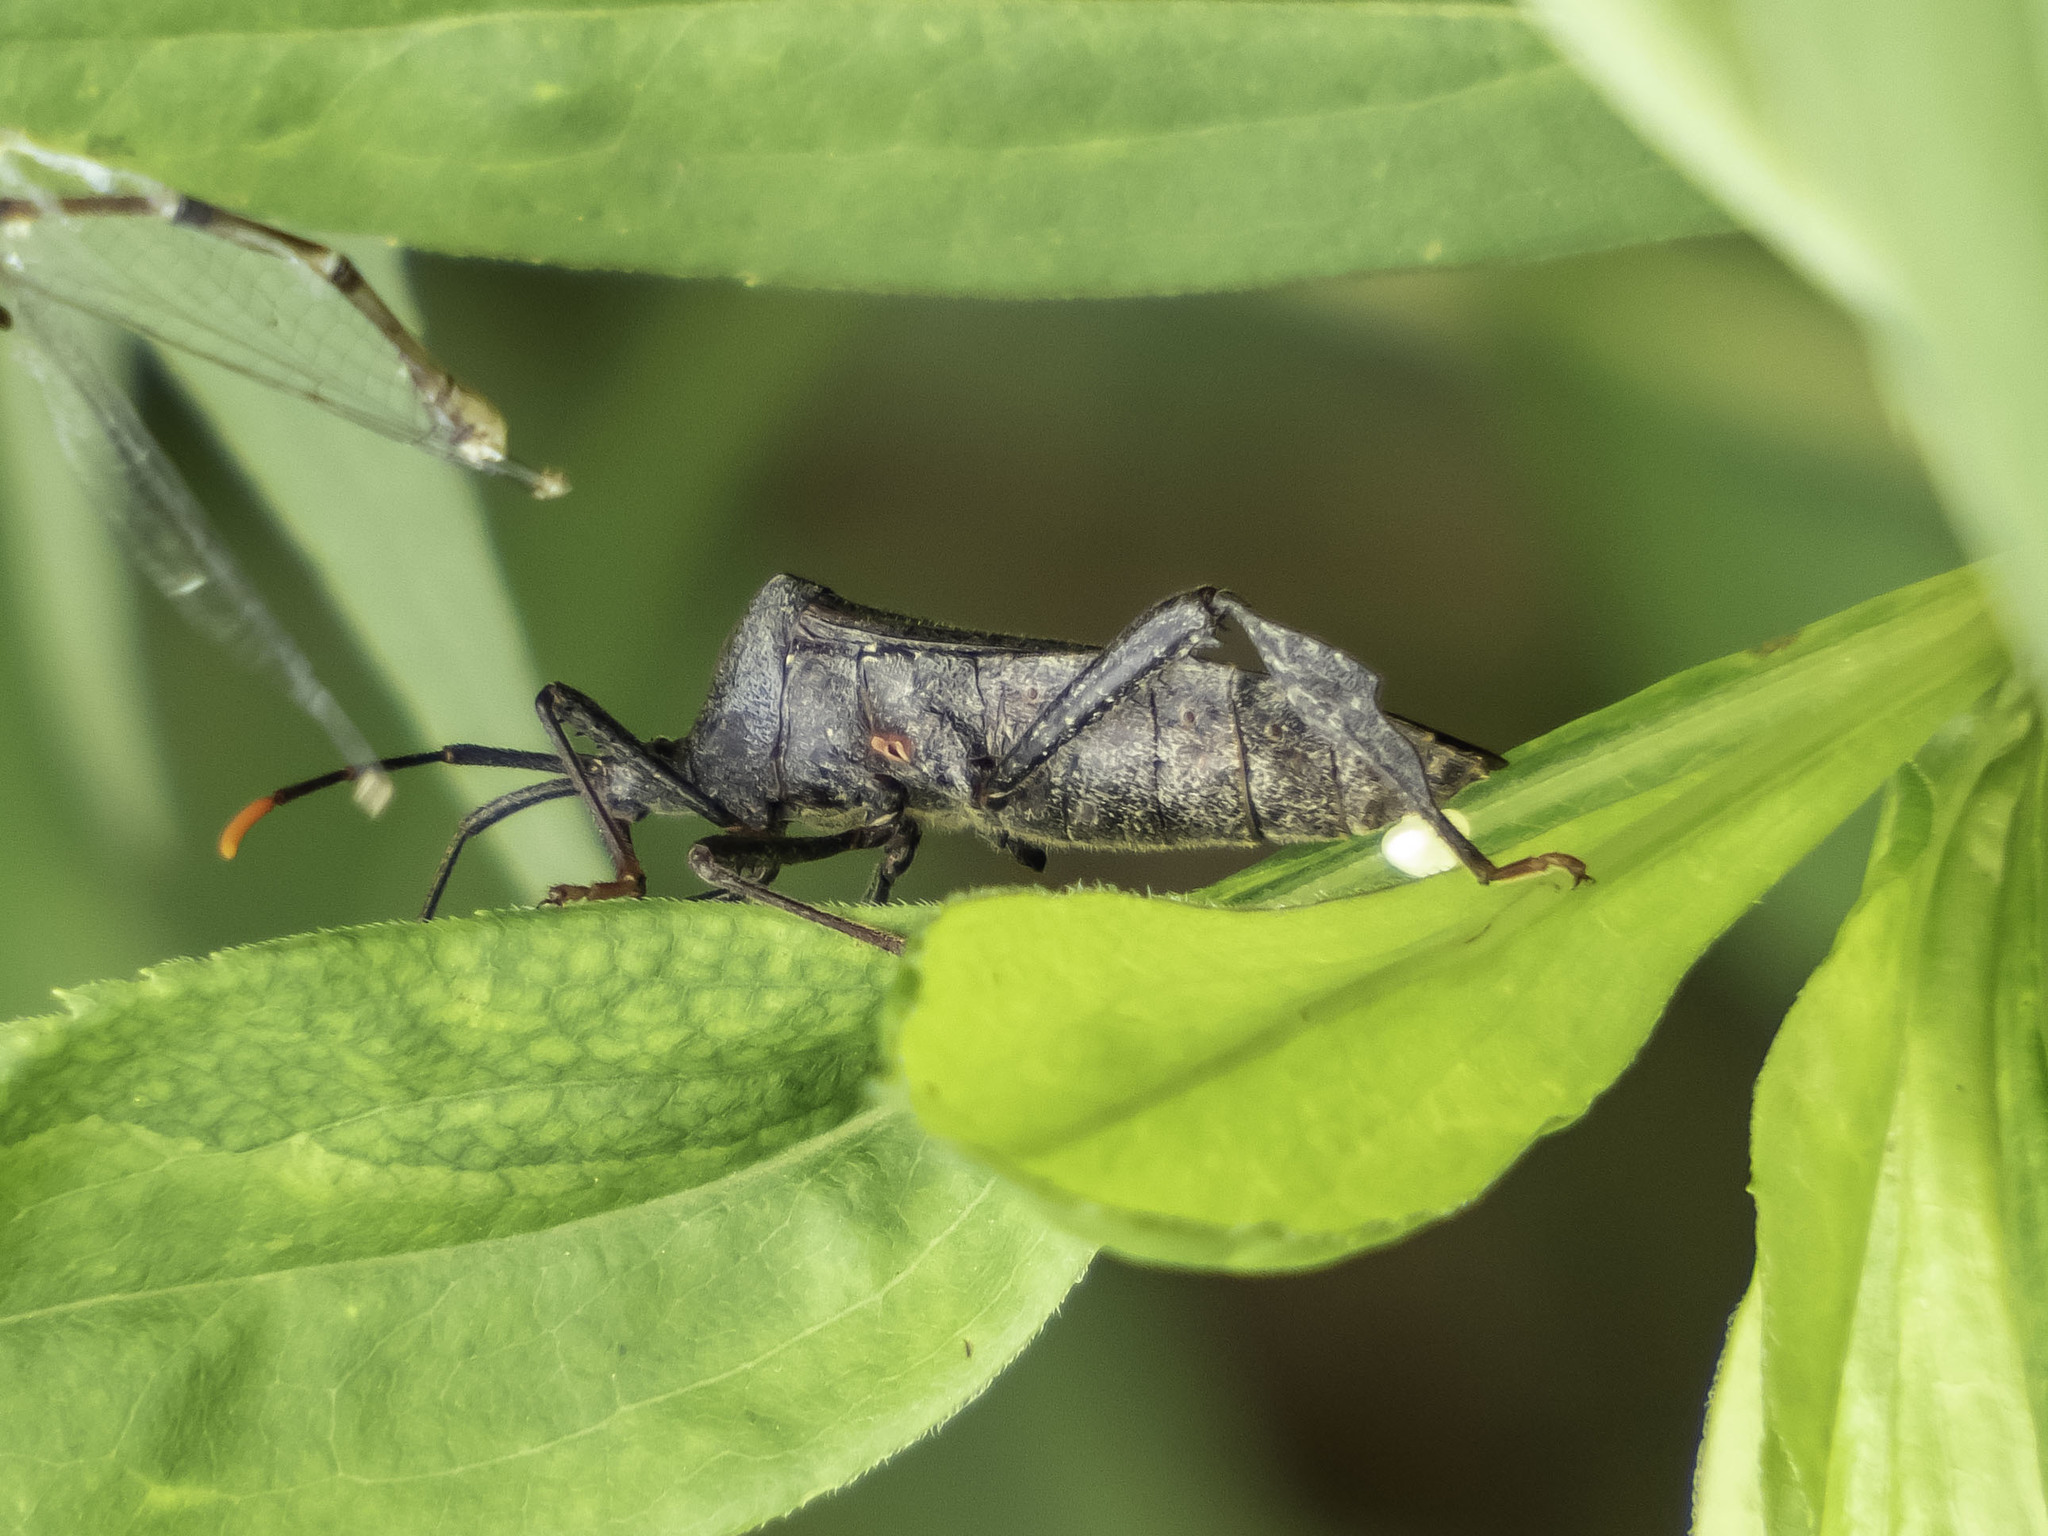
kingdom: Animalia
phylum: Arthropoda
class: Insecta
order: Hemiptera
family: Coreidae
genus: Acanthocephala
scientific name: Acanthocephala terminalis
